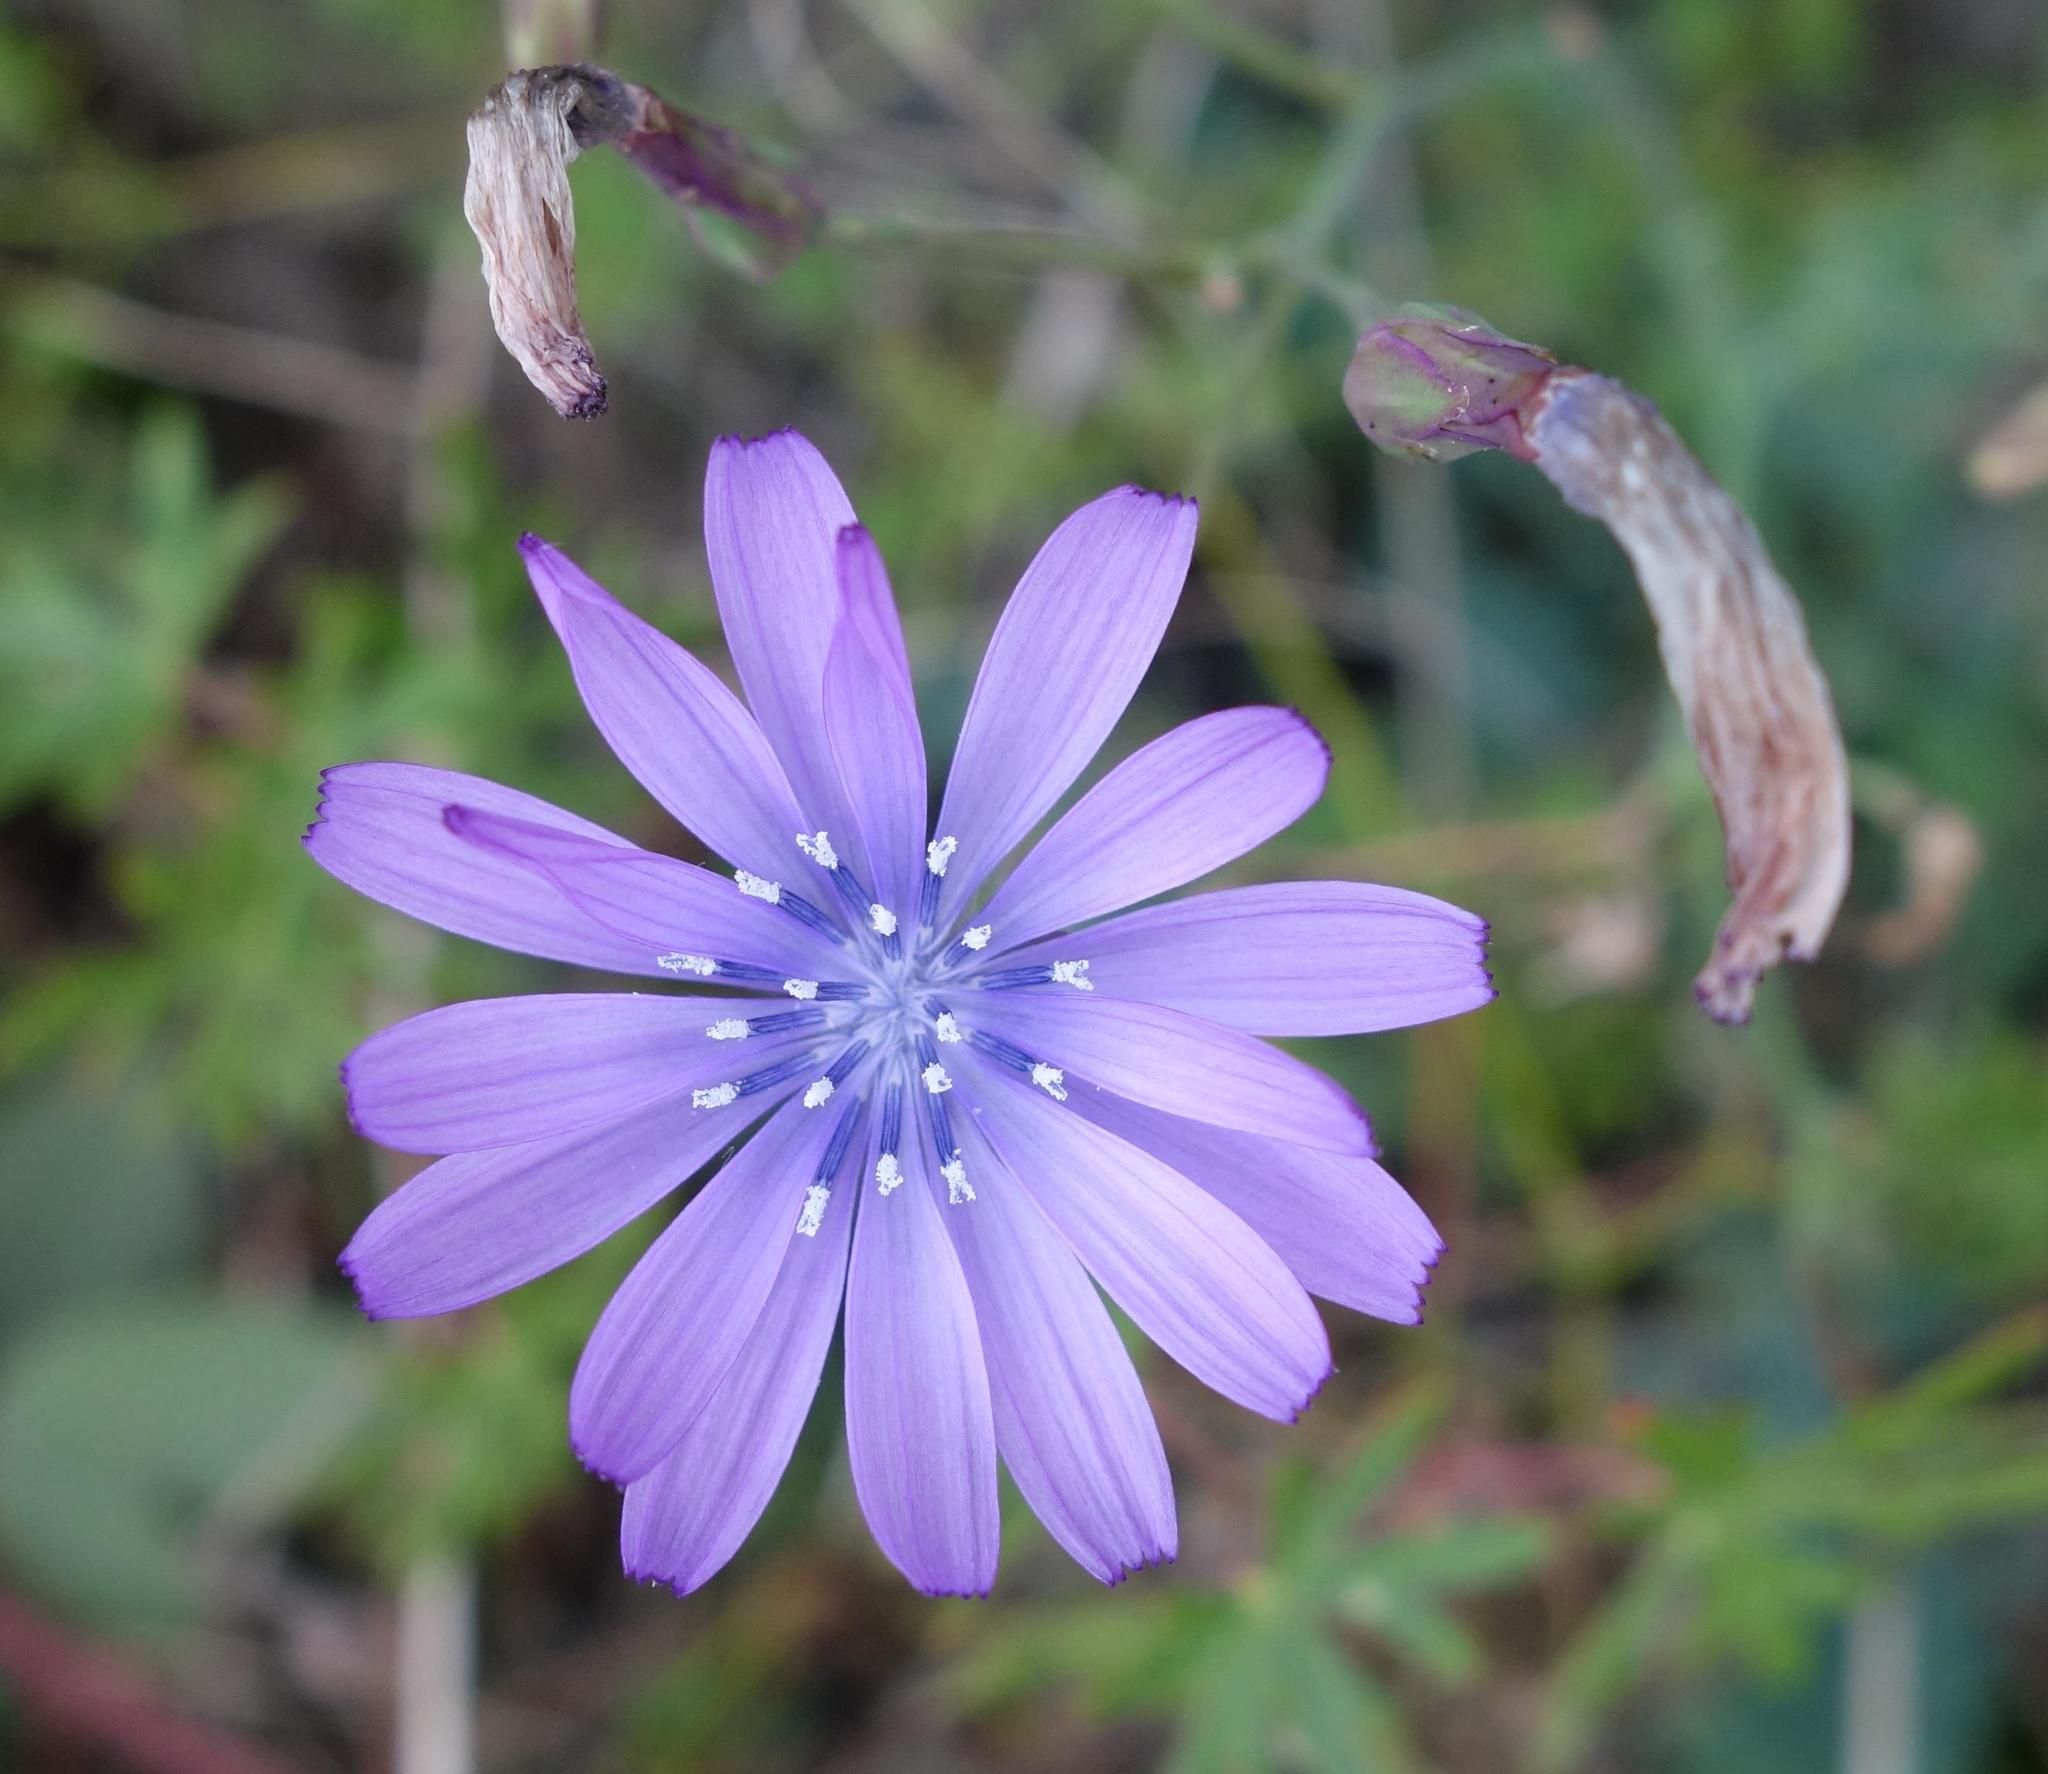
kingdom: Plantae
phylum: Tracheophyta
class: Magnoliopsida
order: Asterales
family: Asteraceae
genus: Lactuca
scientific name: Lactuca perennis
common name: Mountain lettuce
